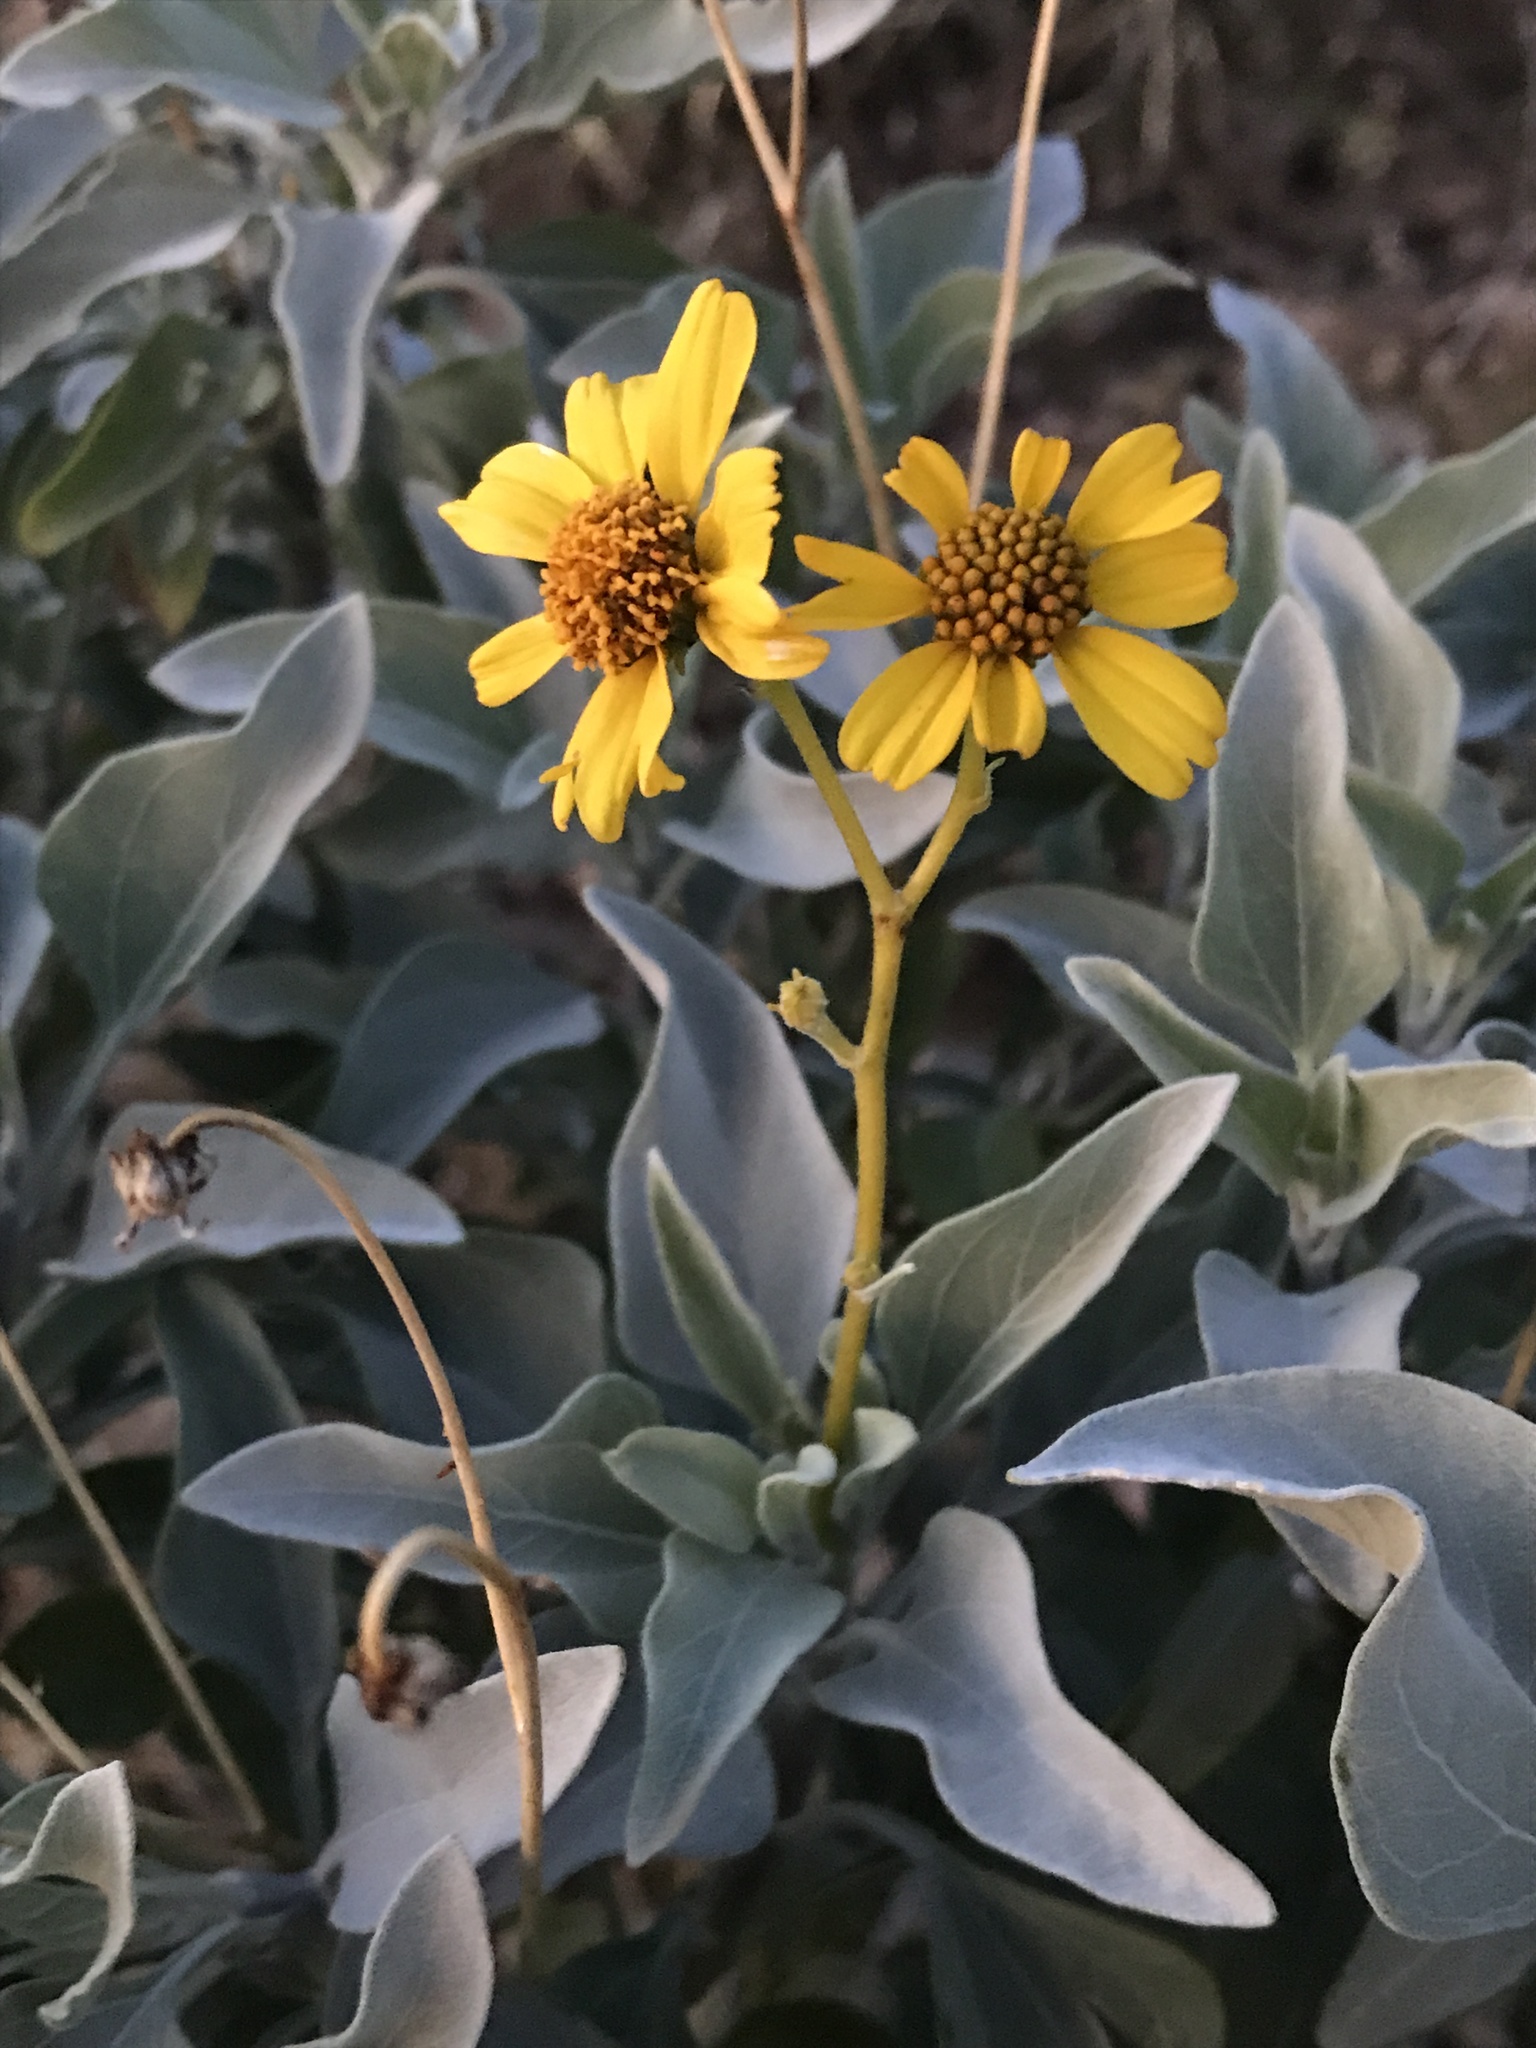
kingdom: Plantae
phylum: Tracheophyta
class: Magnoliopsida
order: Asterales
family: Asteraceae
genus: Encelia
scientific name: Encelia farinosa
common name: Brittlebush
